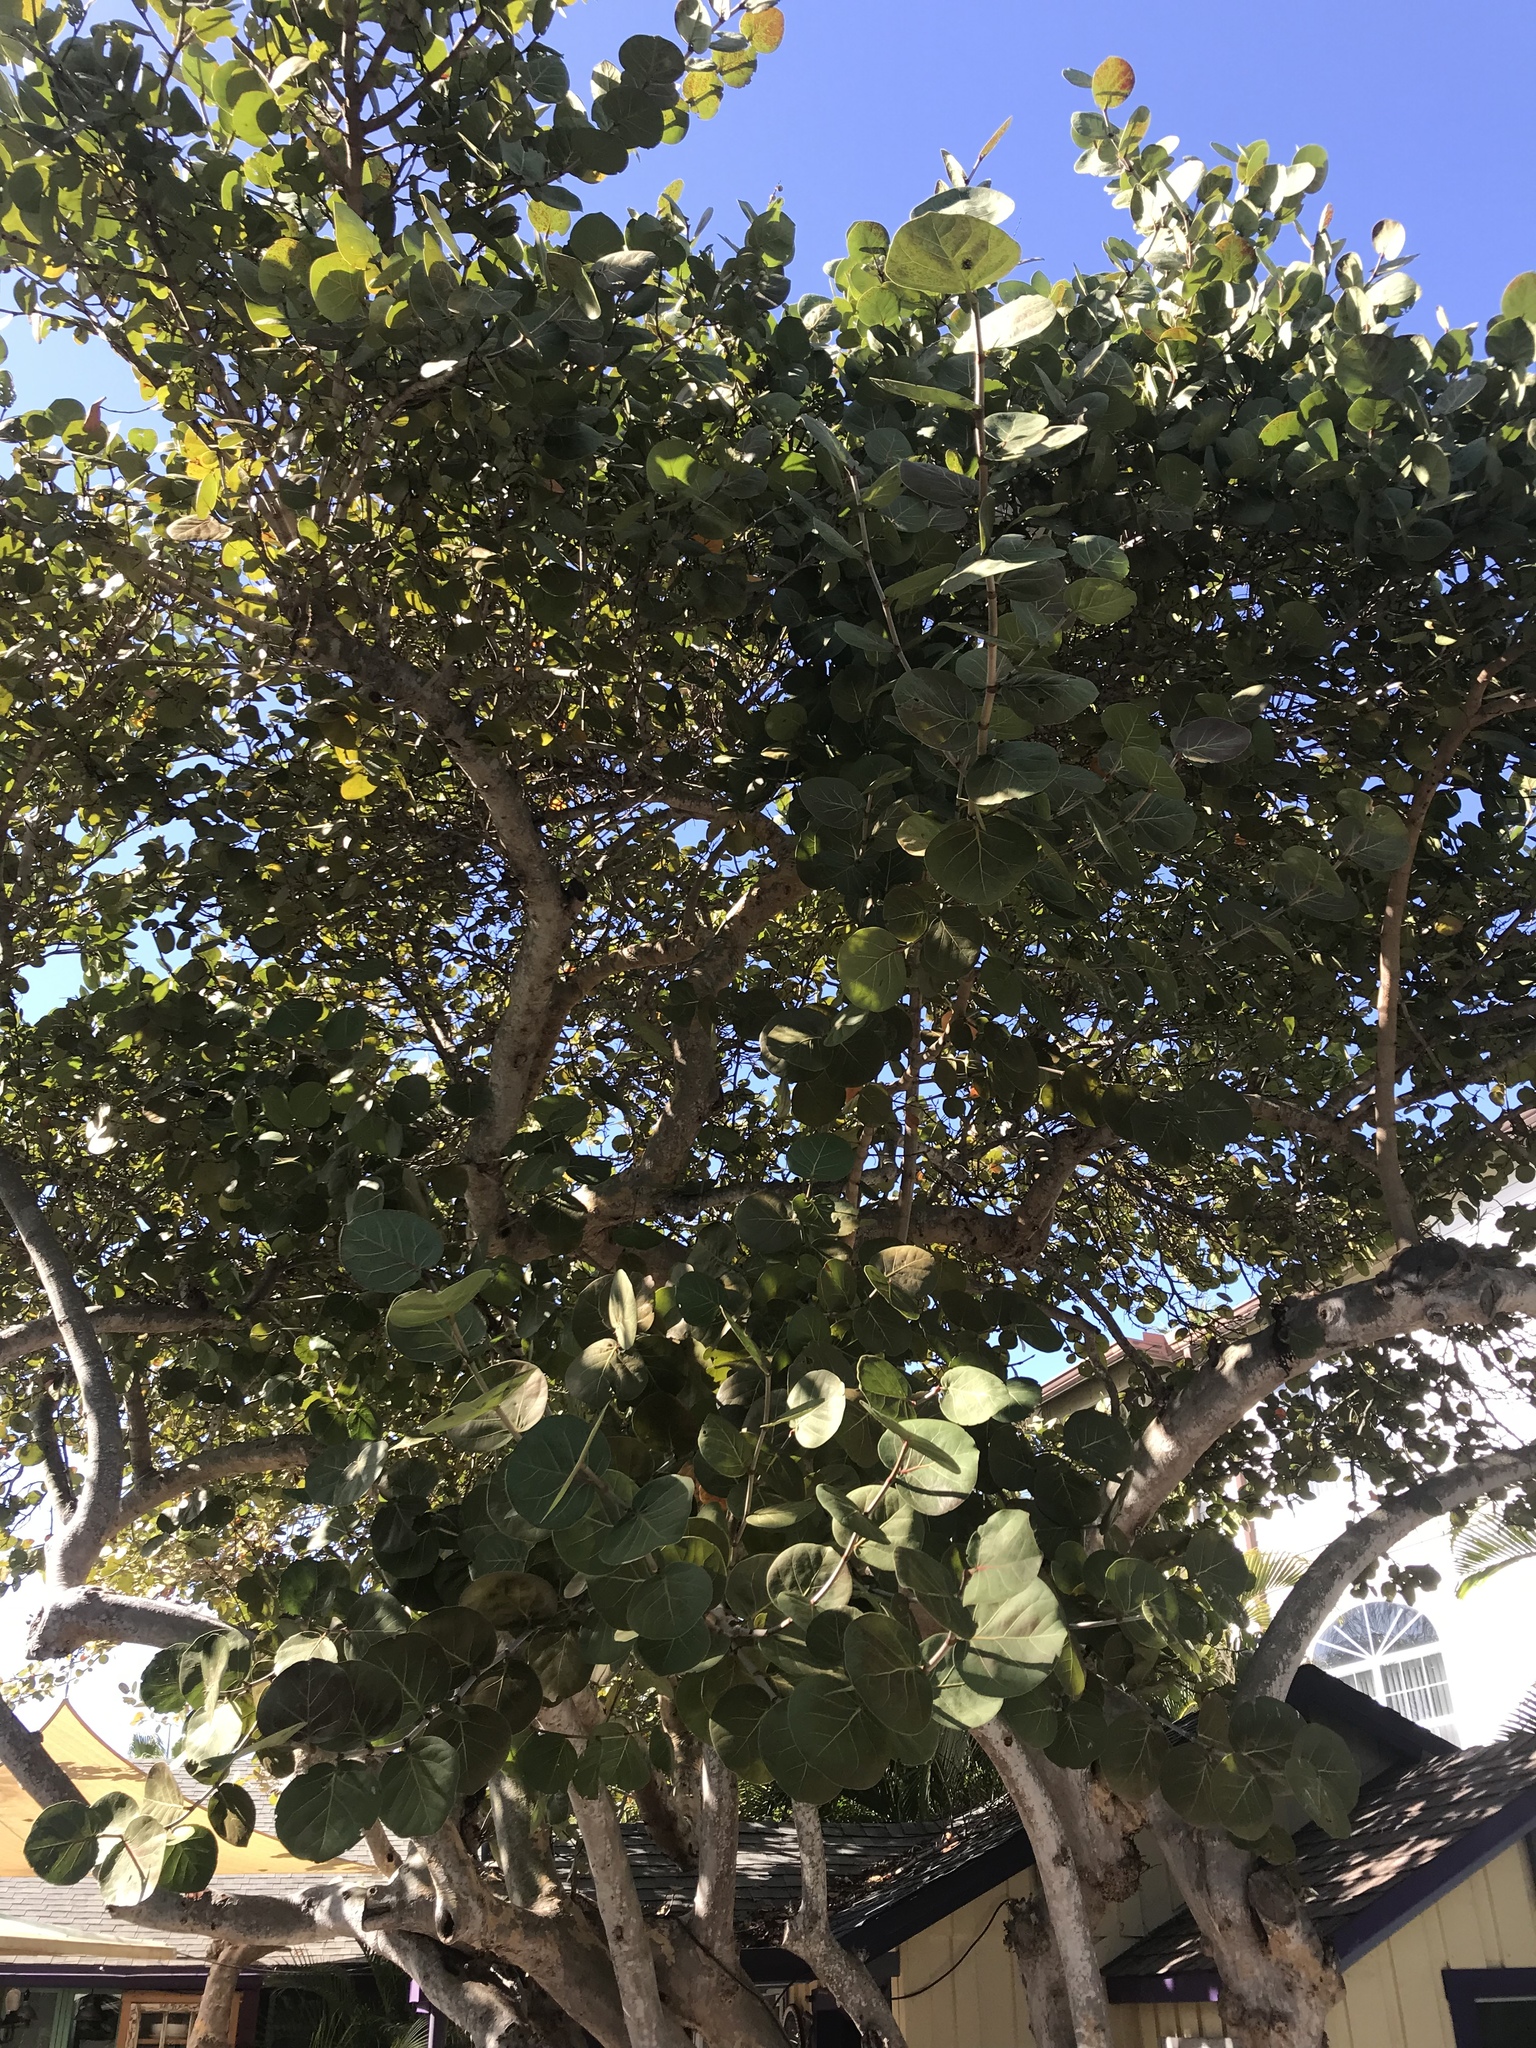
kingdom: Plantae
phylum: Tracheophyta
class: Magnoliopsida
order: Caryophyllales
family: Polygonaceae
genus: Coccoloba
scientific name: Coccoloba uvifera
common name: Seagrape
